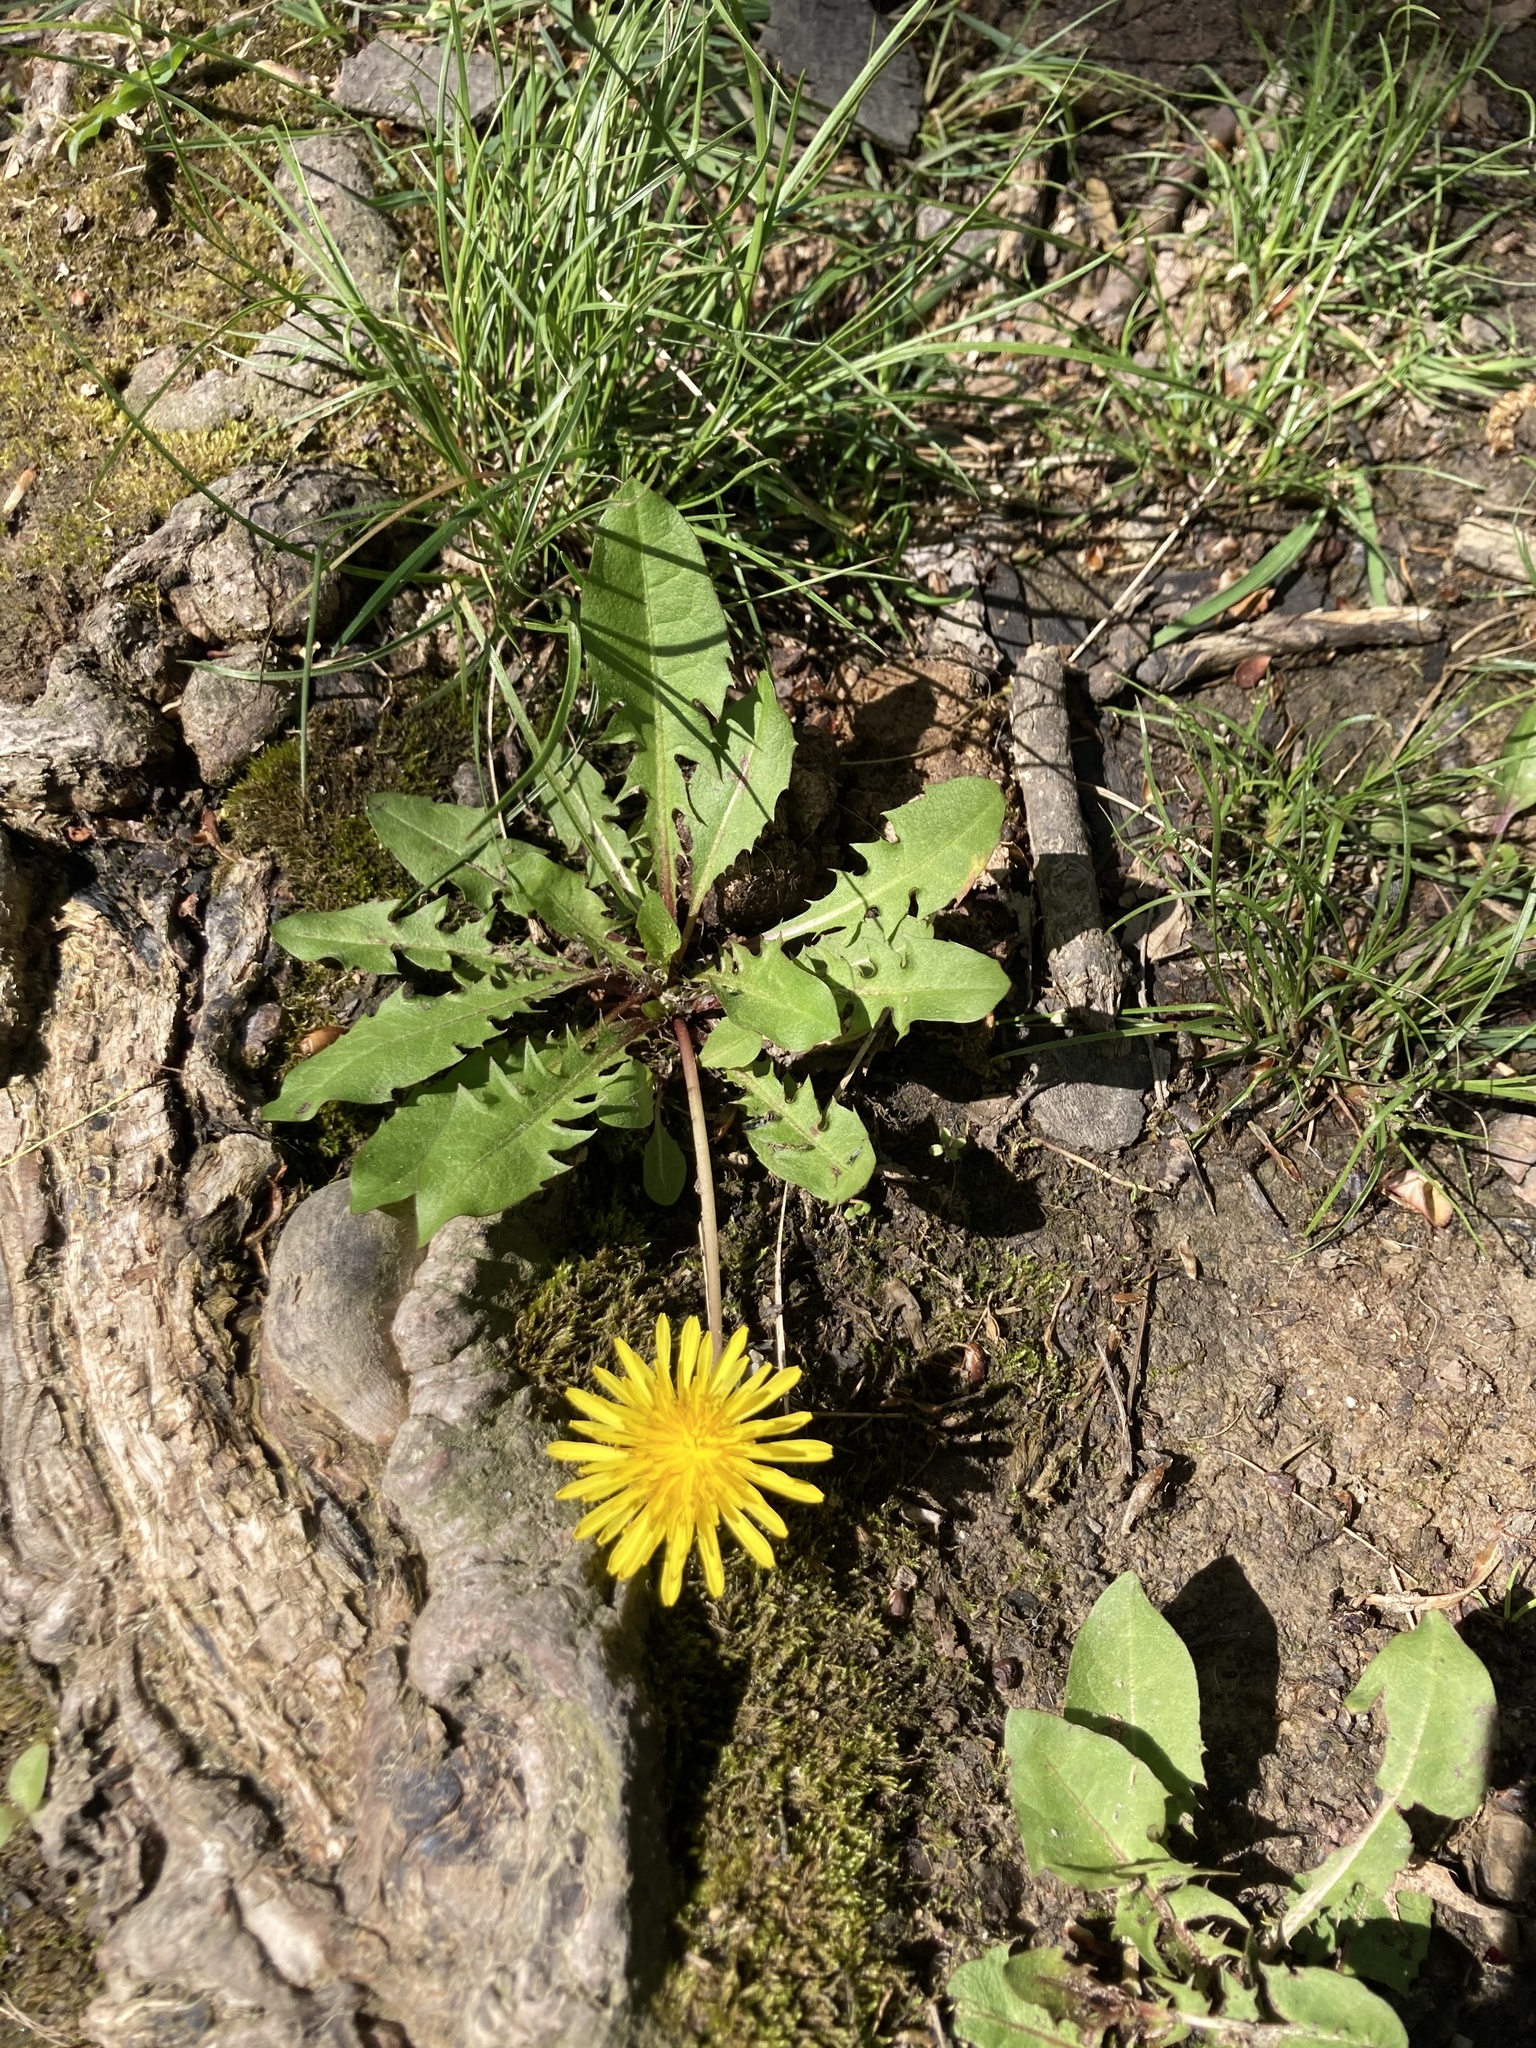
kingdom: Plantae
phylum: Tracheophyta
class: Magnoliopsida
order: Asterales
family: Asteraceae
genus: Taraxacum
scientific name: Taraxacum
